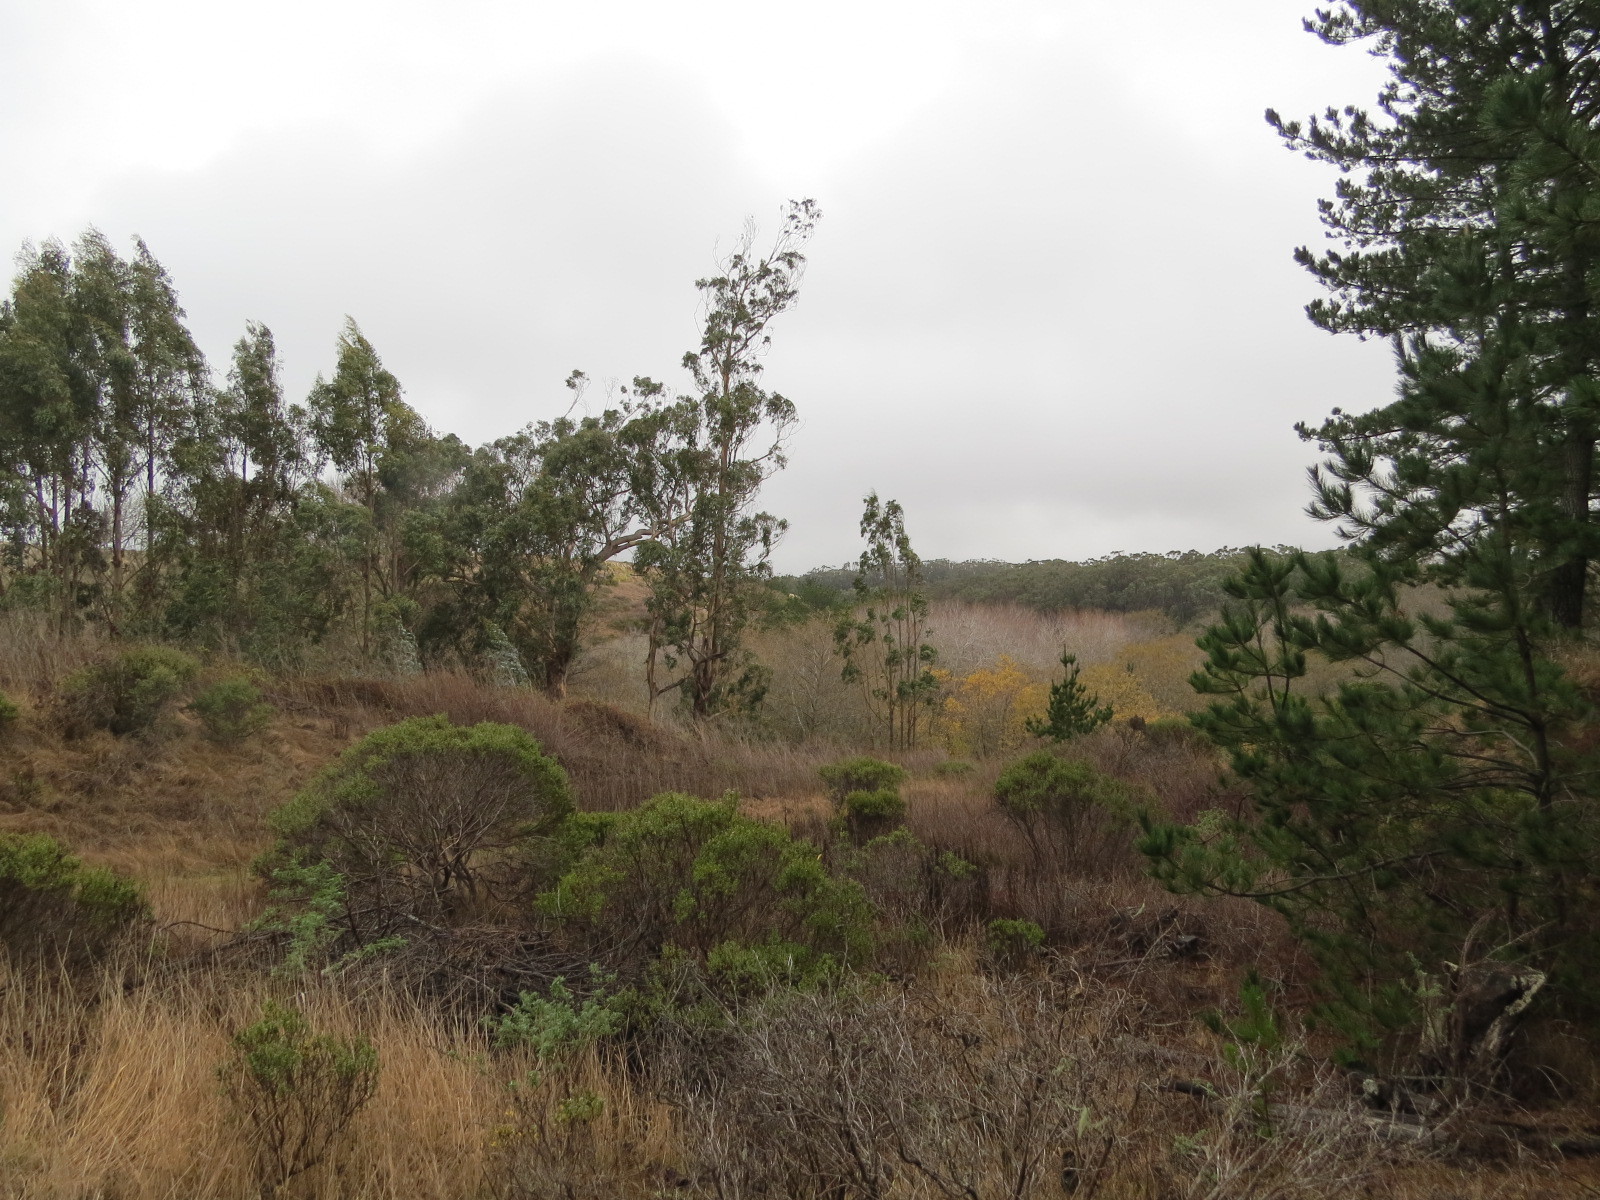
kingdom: Plantae
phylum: Tracheophyta
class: Magnoliopsida
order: Myrtales
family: Myrtaceae
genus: Eucalyptus
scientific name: Eucalyptus globulus
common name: Southern blue-gum
